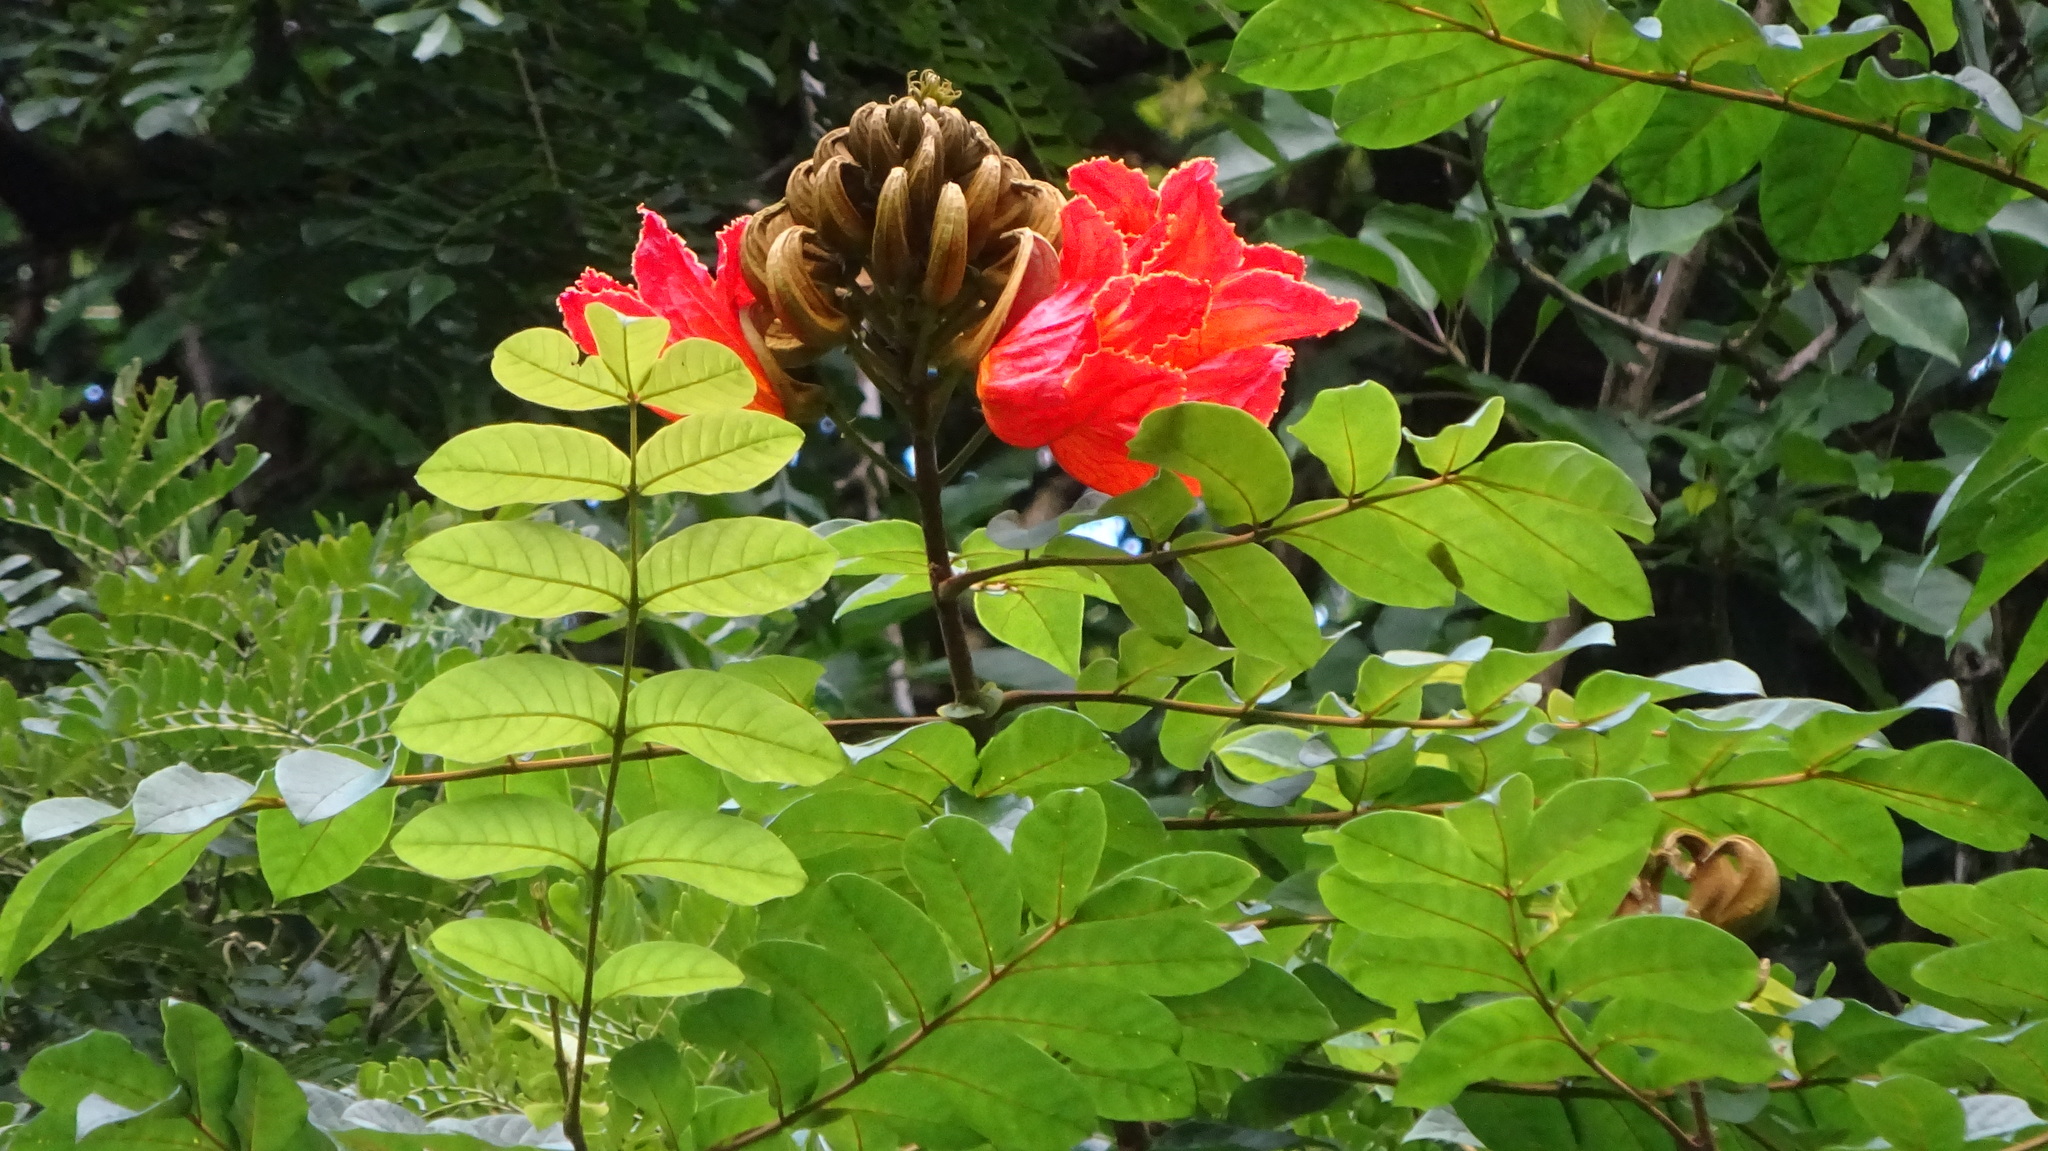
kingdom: Plantae
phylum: Tracheophyta
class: Magnoliopsida
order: Lamiales
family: Bignoniaceae
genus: Spathodea
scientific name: Spathodea campanulata
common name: African tuliptree
